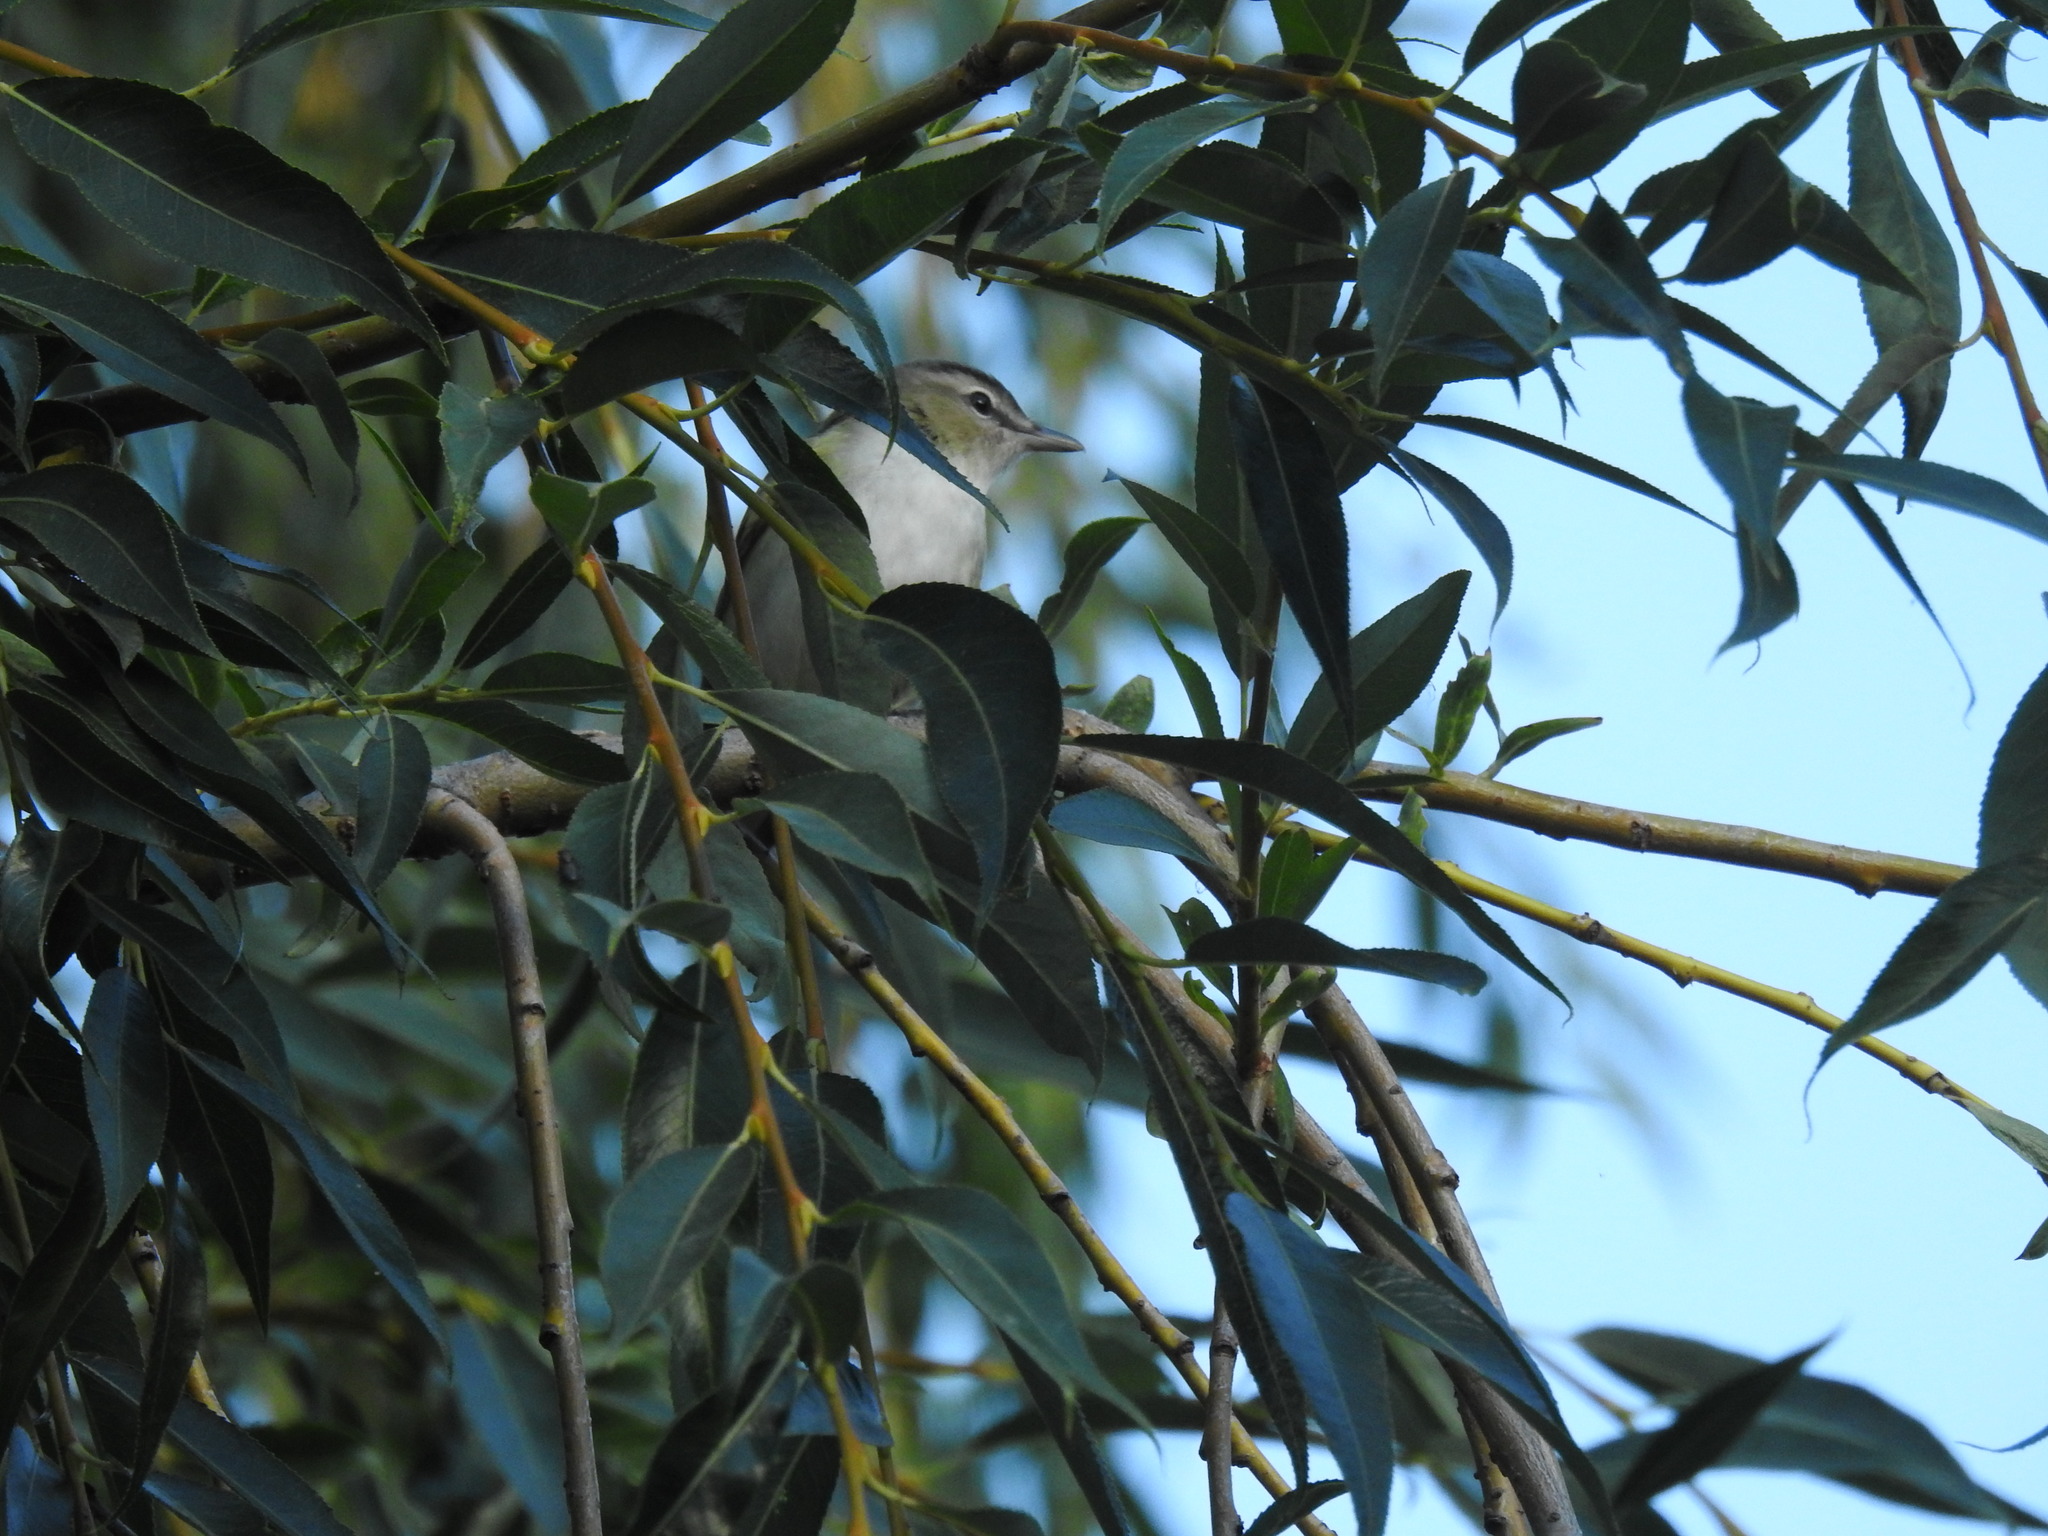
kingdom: Animalia
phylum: Chordata
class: Aves
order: Passeriformes
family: Vireonidae
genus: Vireo
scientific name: Vireo olivaceus
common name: Red-eyed vireo
